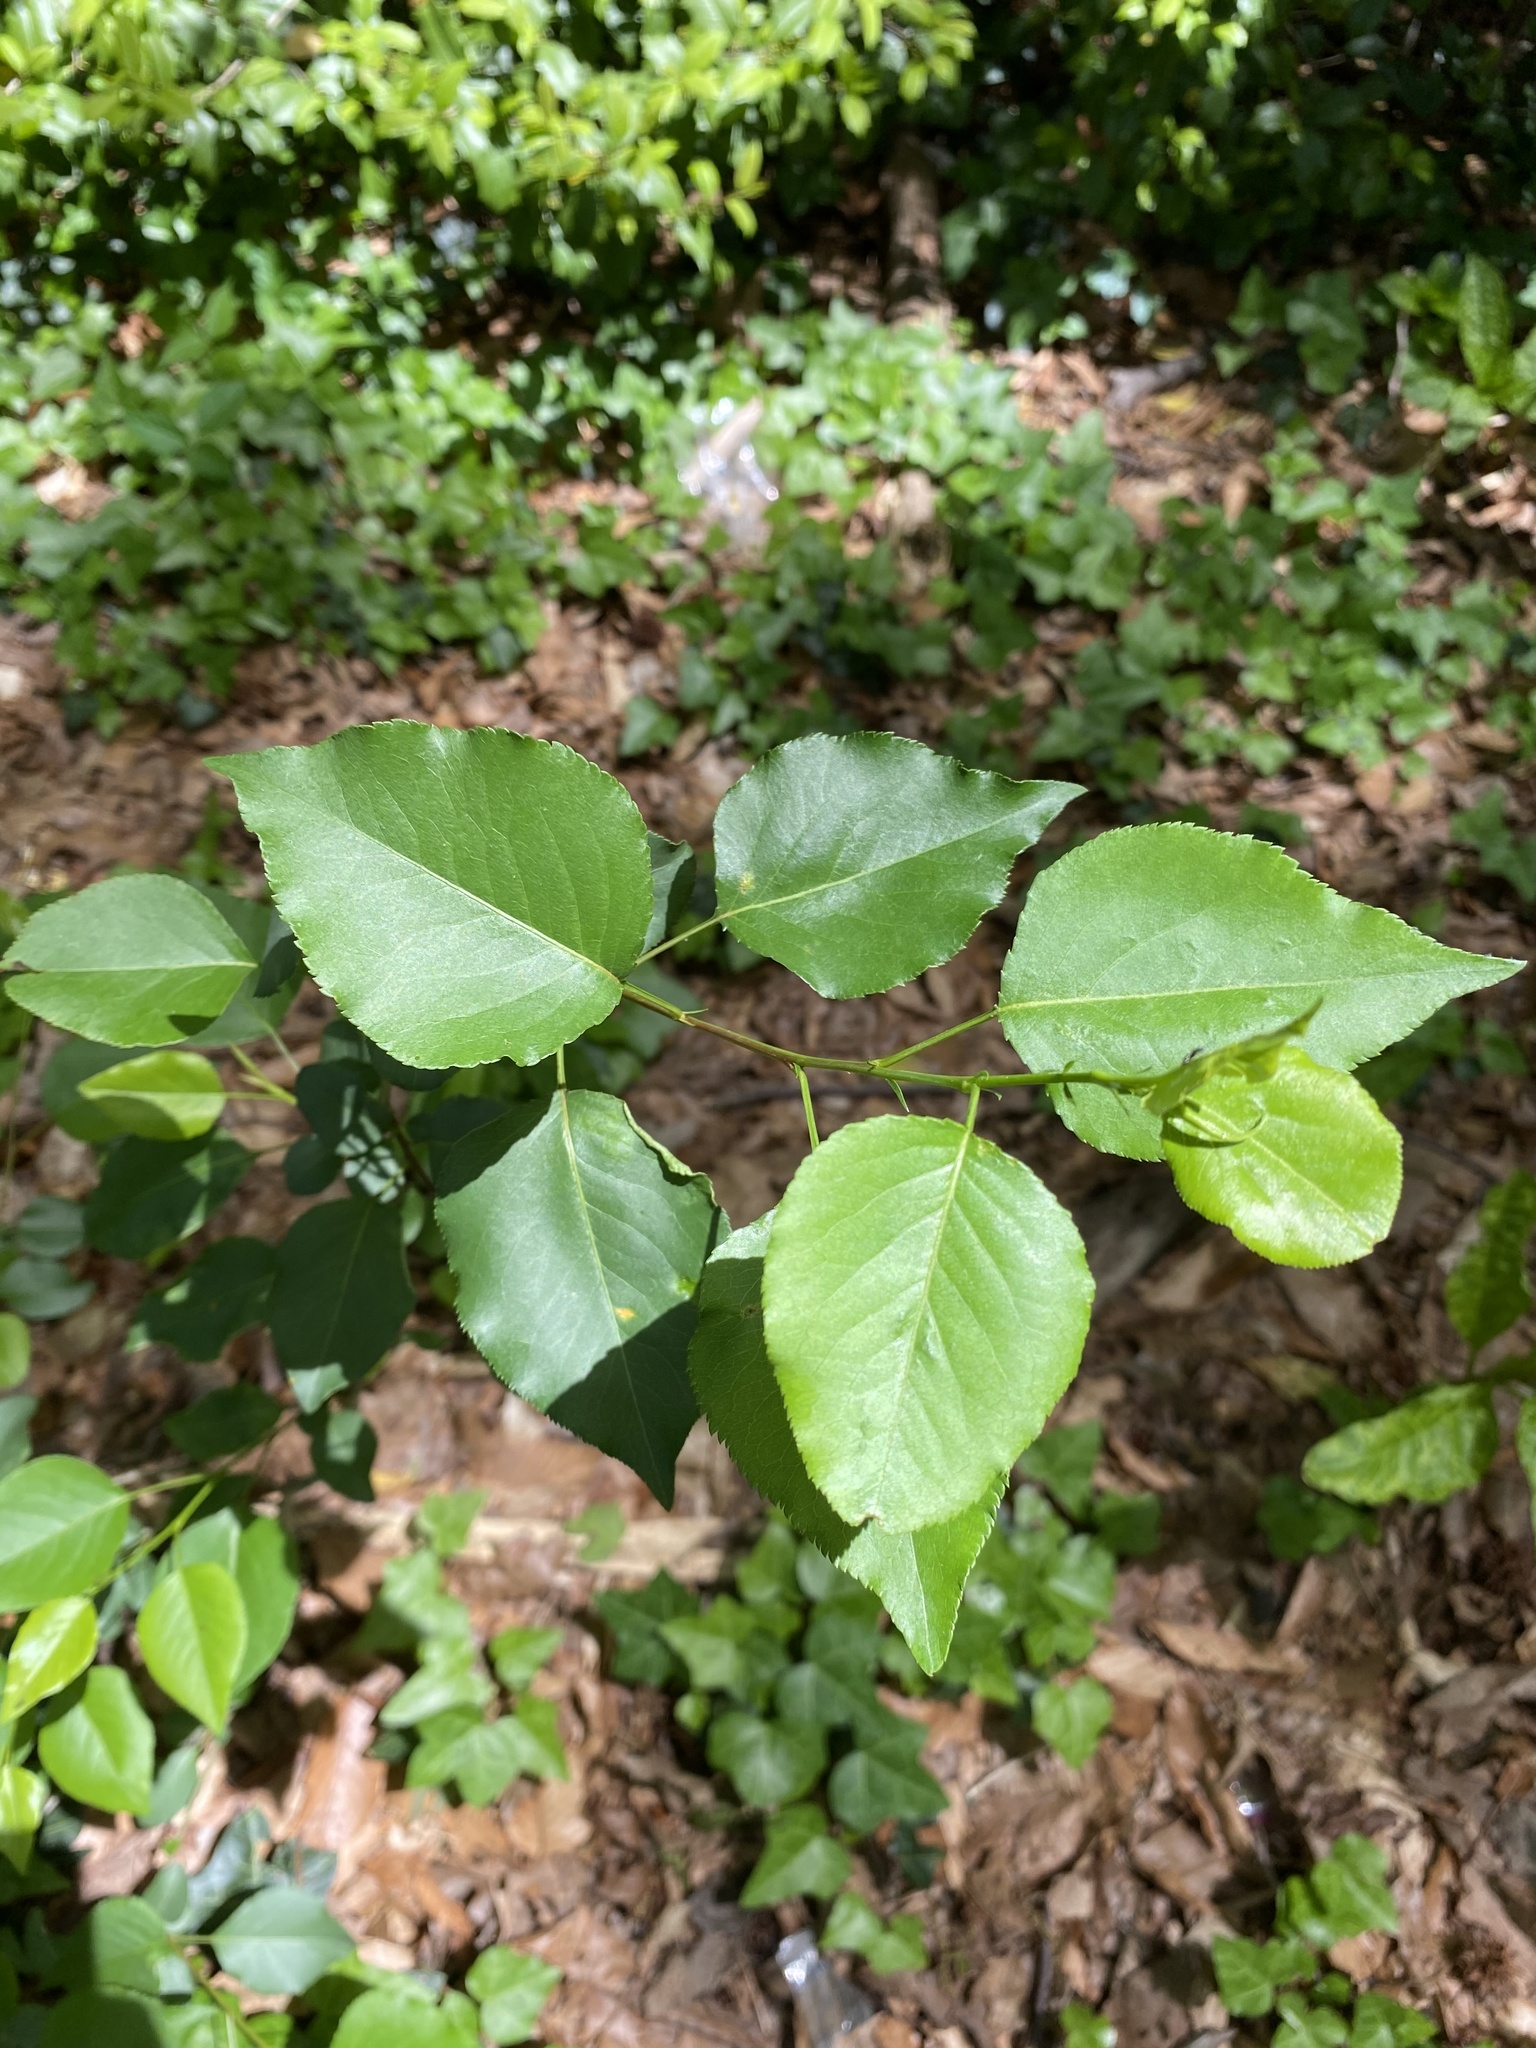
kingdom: Plantae
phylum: Tracheophyta
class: Magnoliopsida
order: Rosales
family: Rosaceae
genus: Pyrus
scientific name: Pyrus calleryana
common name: Callery pear
